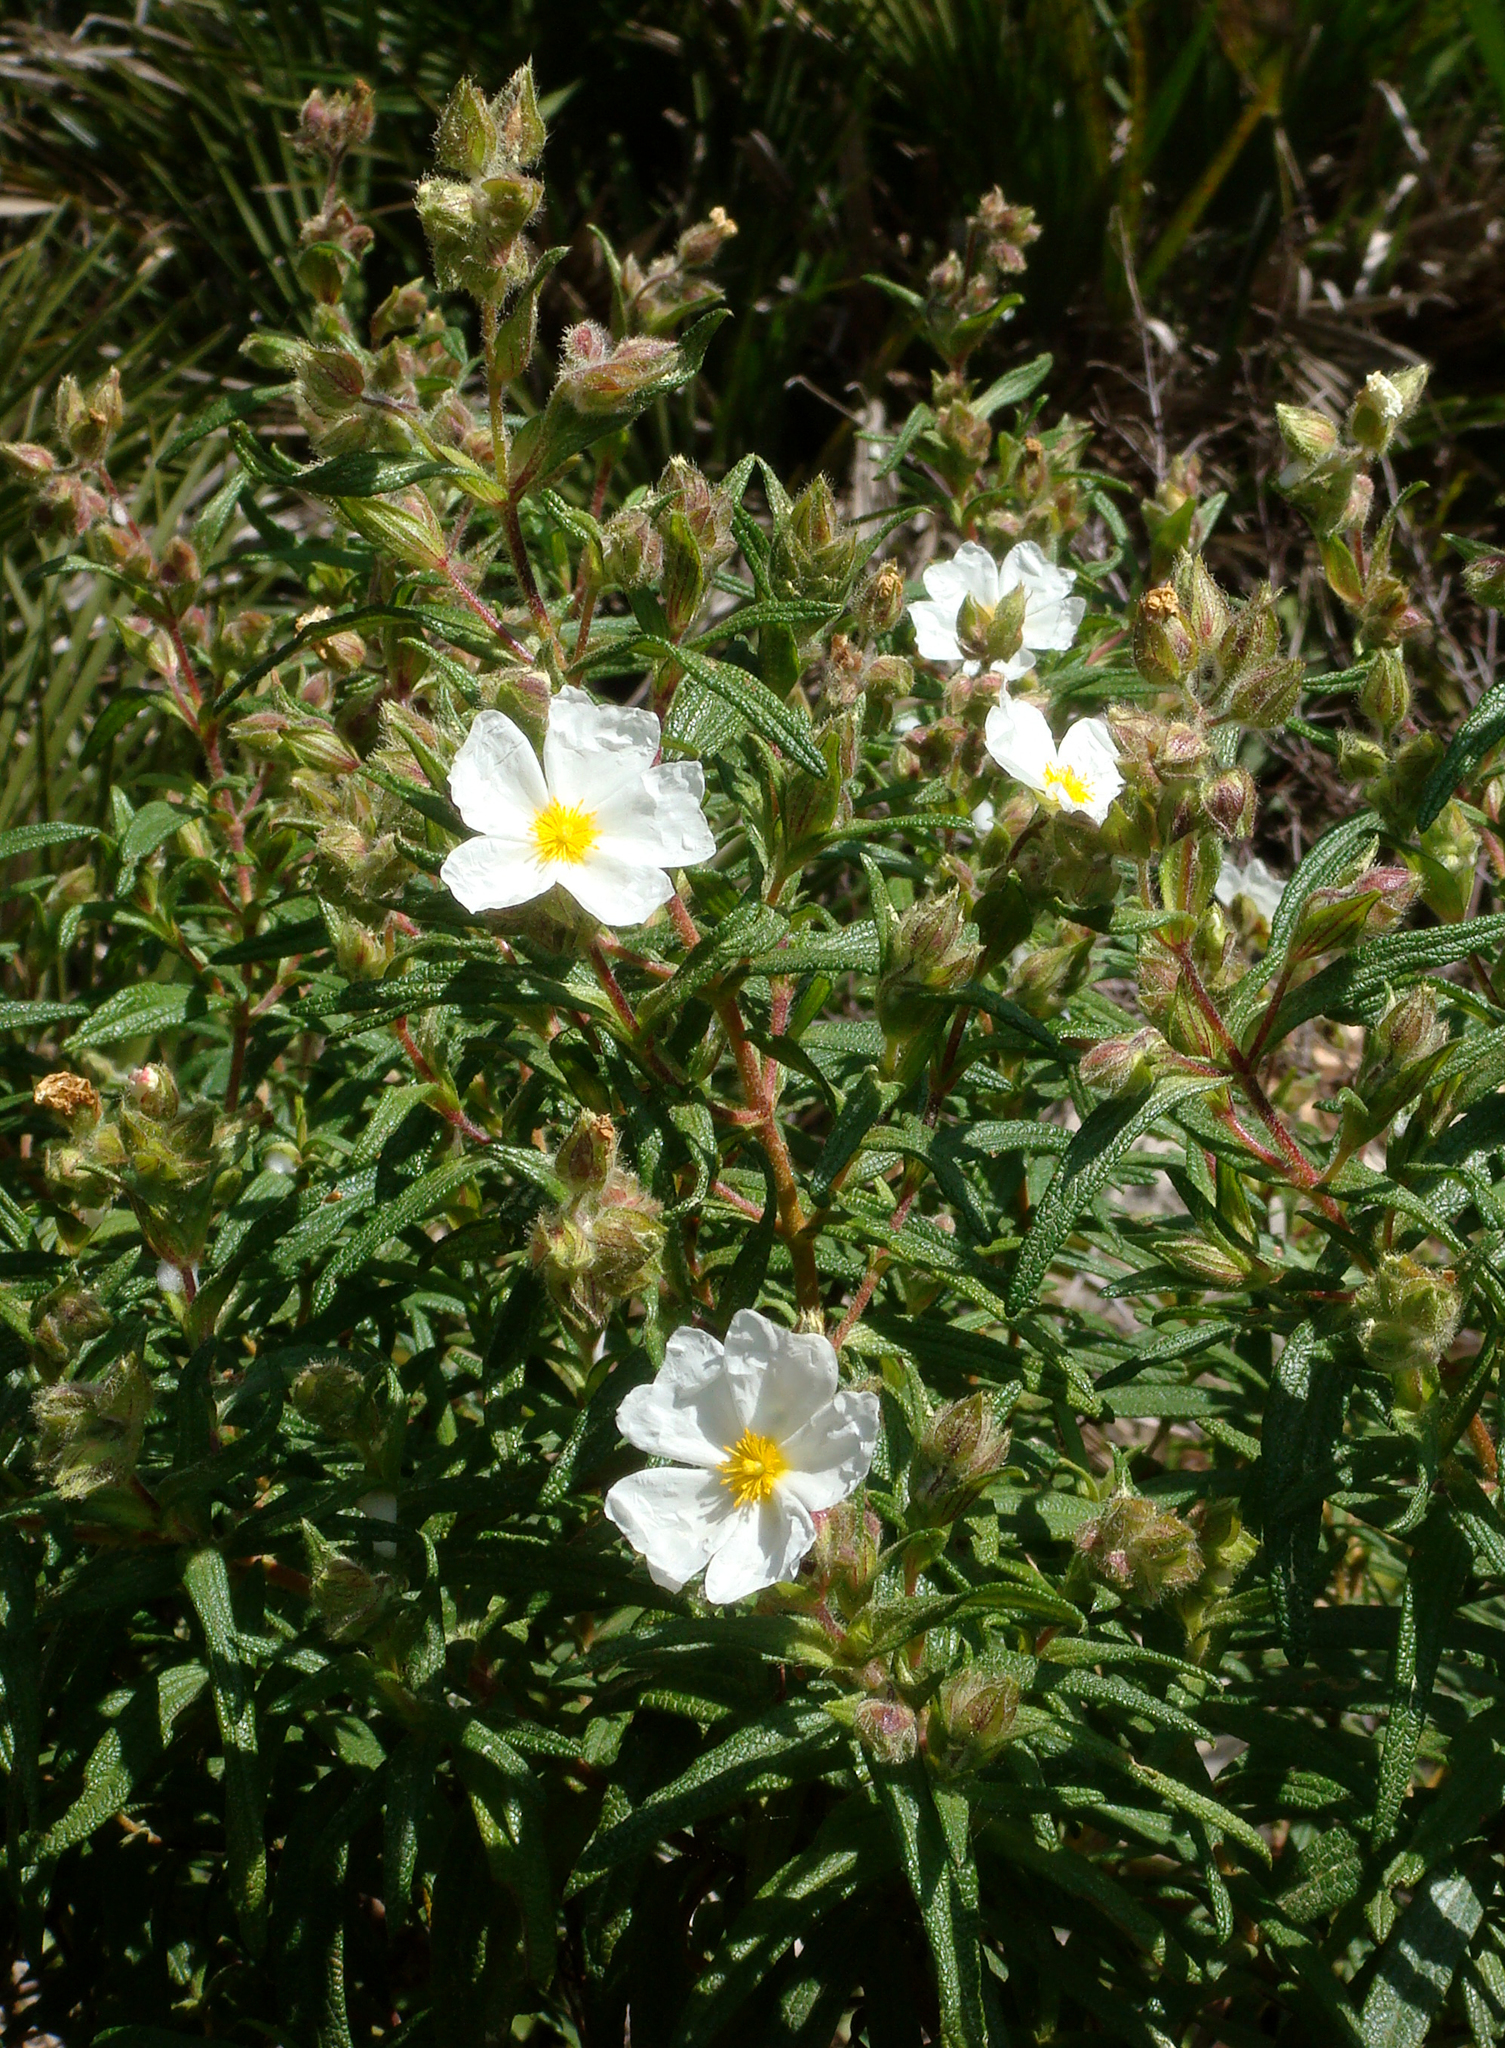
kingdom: Plantae
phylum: Tracheophyta
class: Magnoliopsida
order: Malvales
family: Cistaceae
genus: Cistus
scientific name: Cistus monspeliensis
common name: Montpelier cistus
